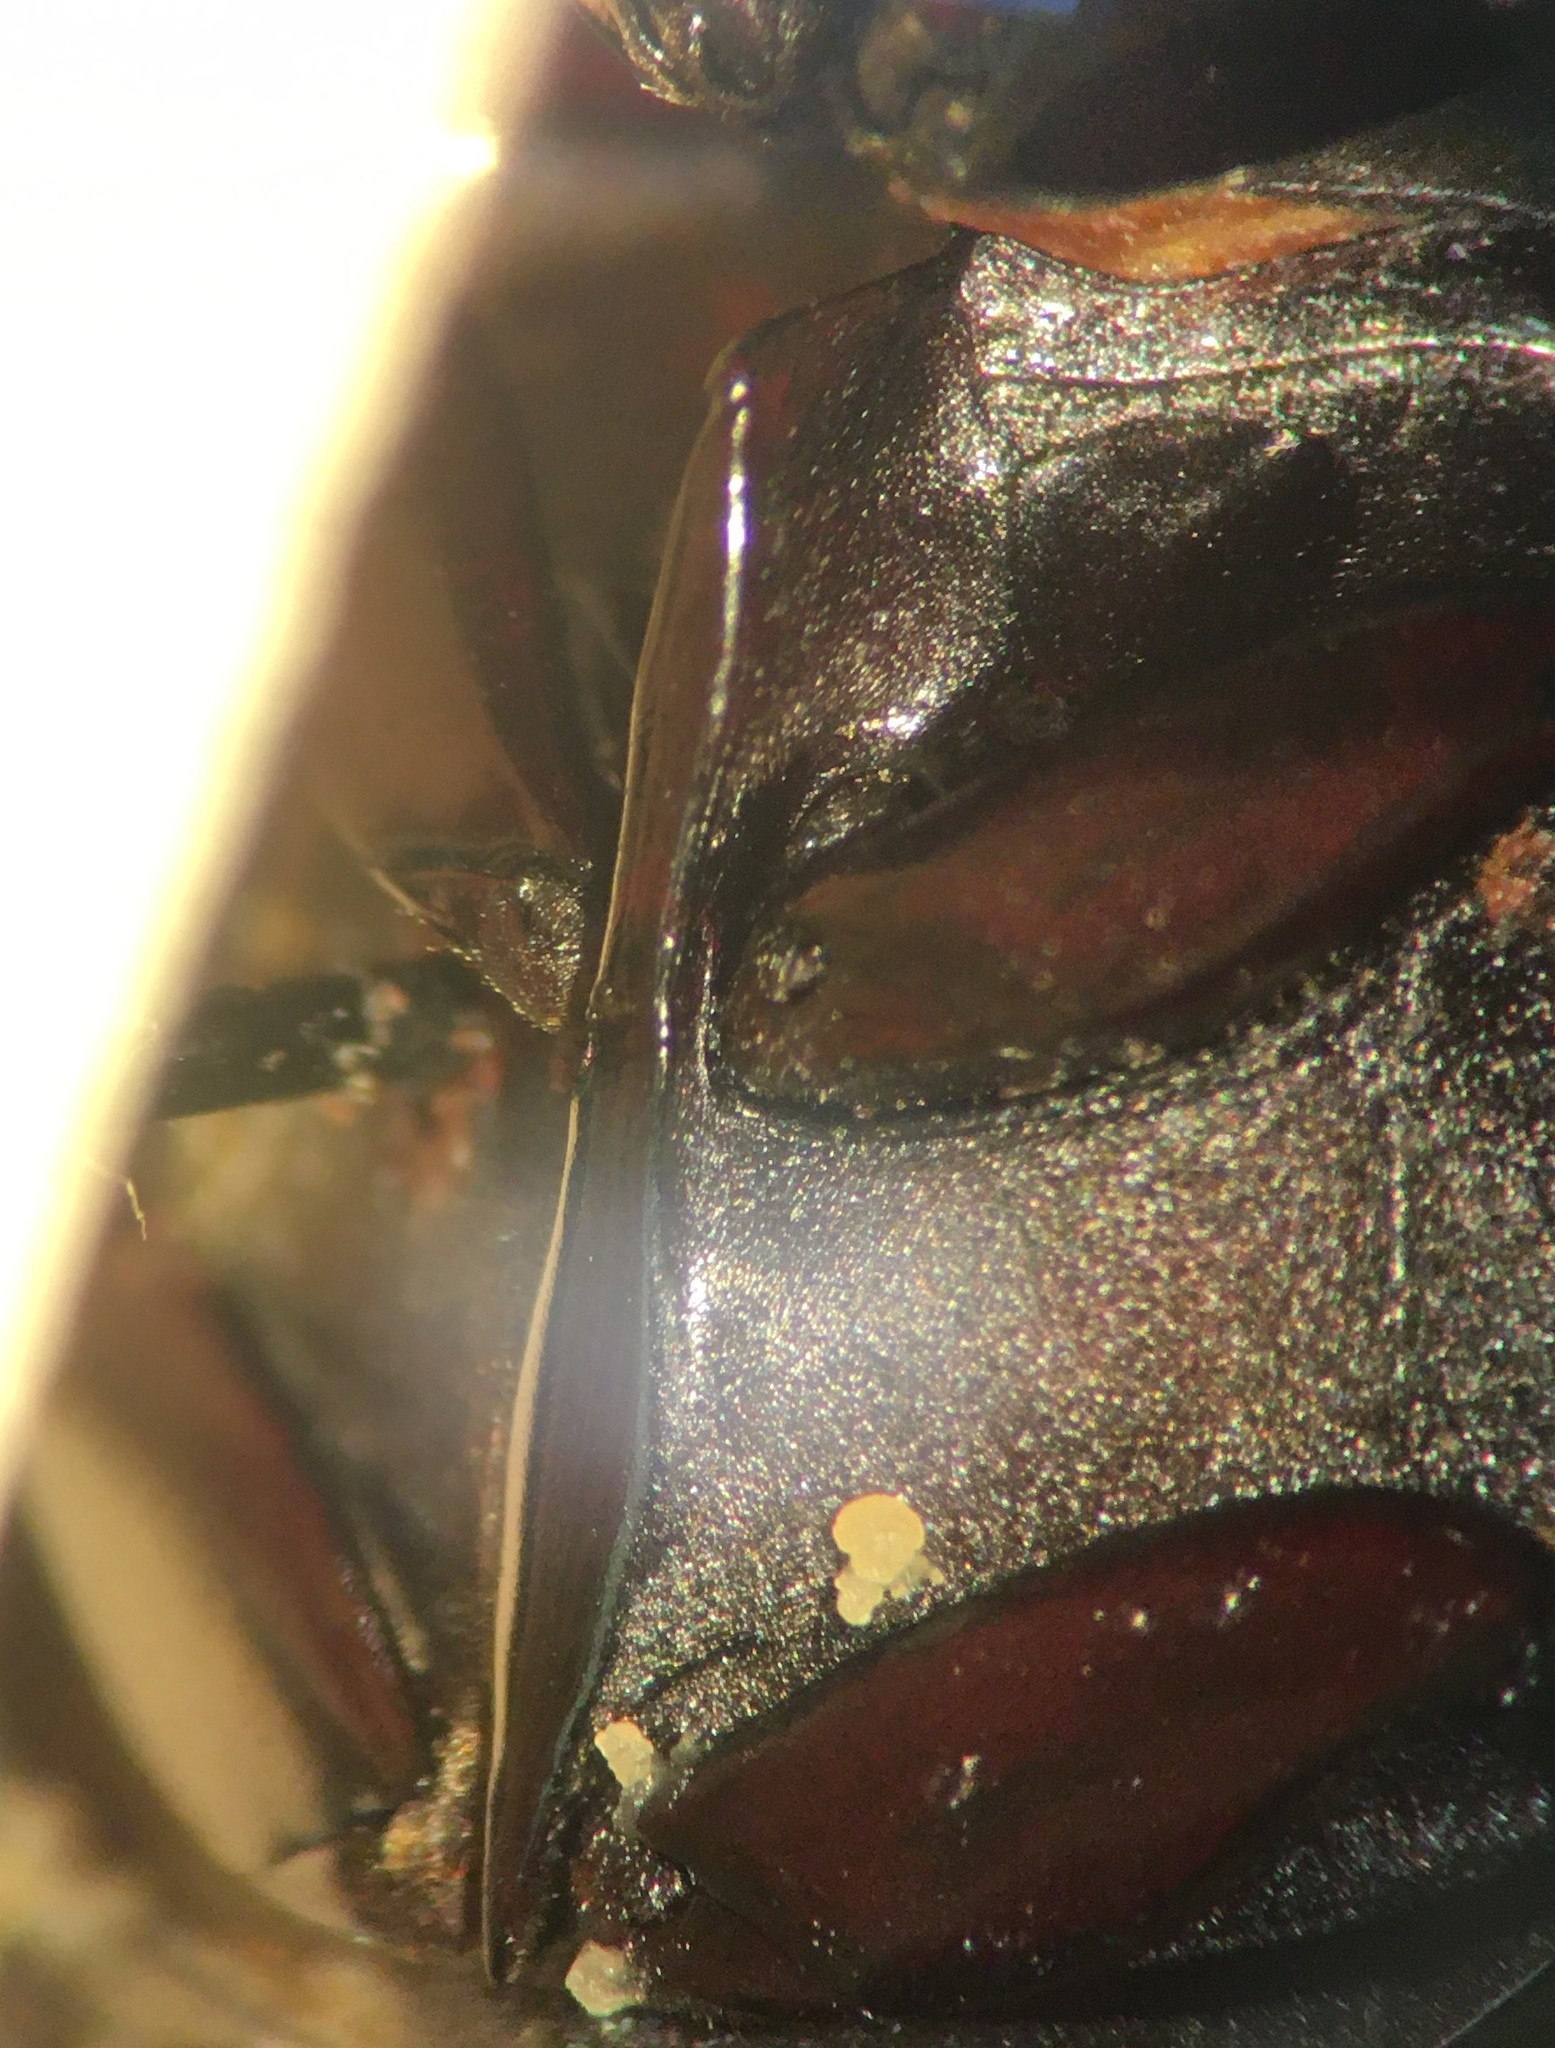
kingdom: Animalia
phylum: Arthropoda
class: Insecta
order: Coleoptera
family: Hydrophilidae
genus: Hydrochara
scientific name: Hydrochara occulta
